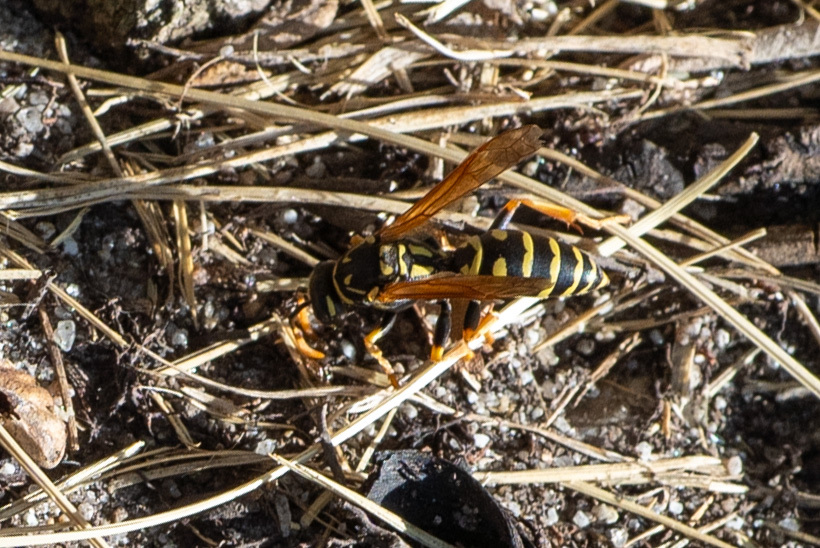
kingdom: Animalia
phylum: Arthropoda
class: Insecta
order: Hymenoptera
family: Eumenidae
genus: Polistes
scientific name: Polistes dominula
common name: Paper wasp
